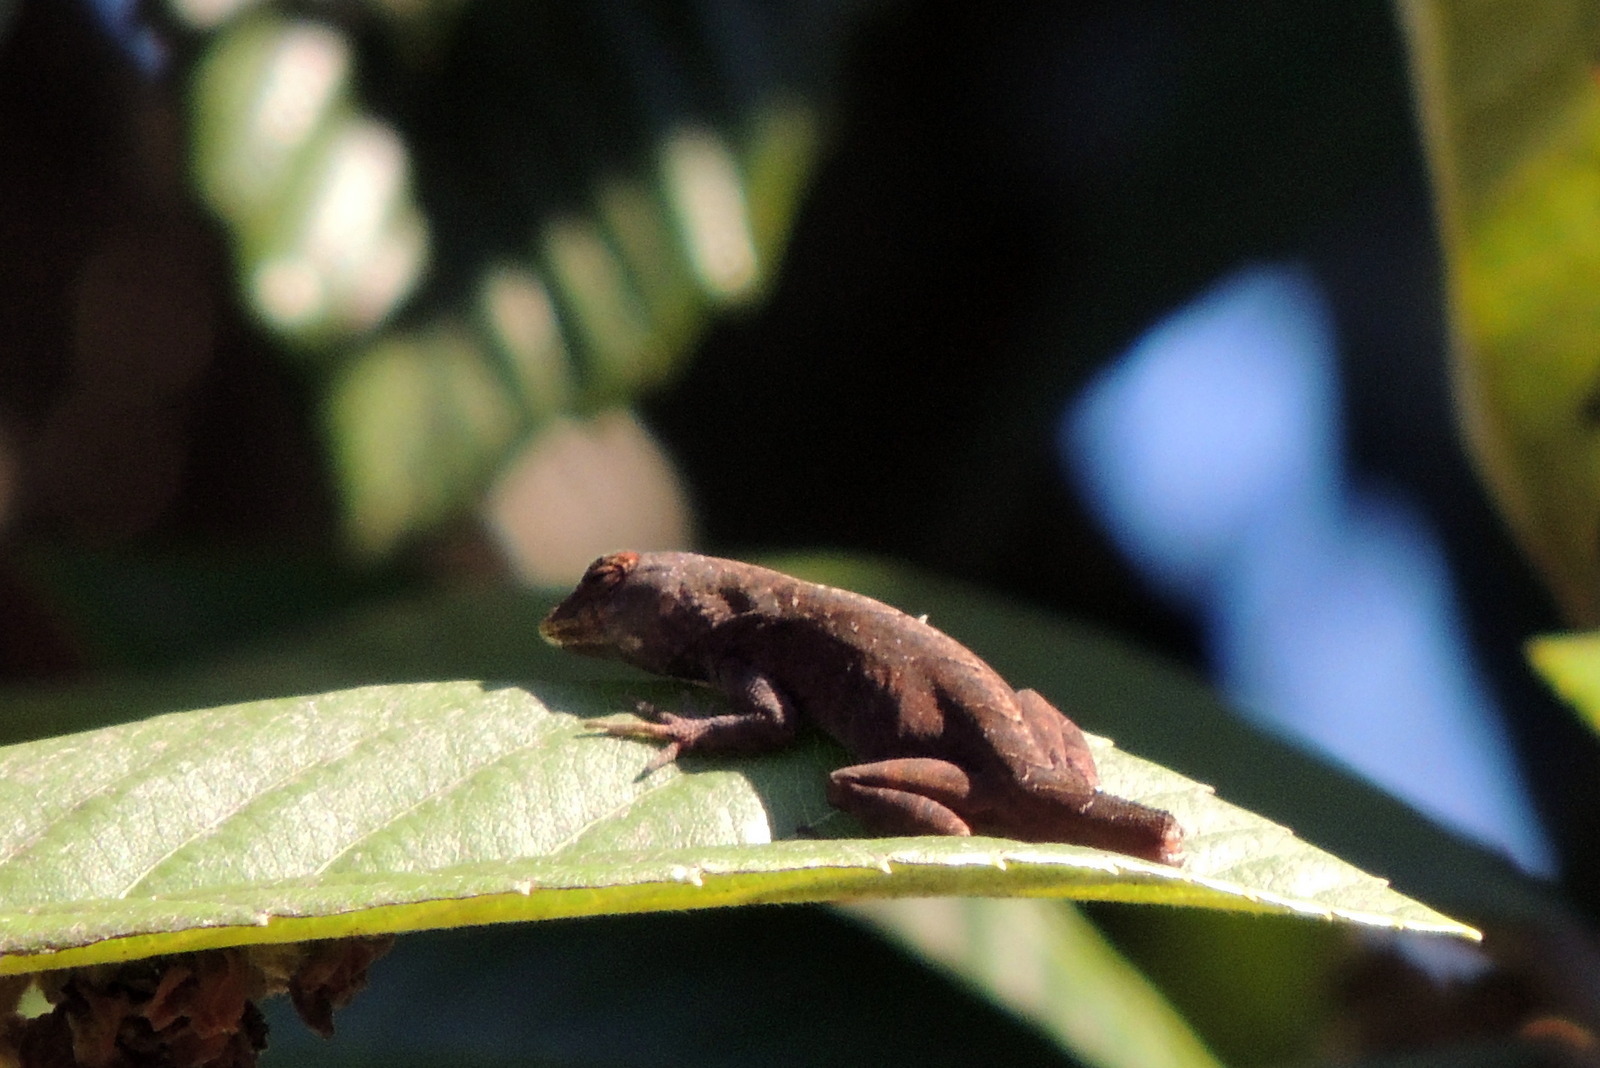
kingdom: Animalia
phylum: Chordata
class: Squamata
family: Dactyloidae
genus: Anolis
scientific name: Anolis sagrei
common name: Brown anole
